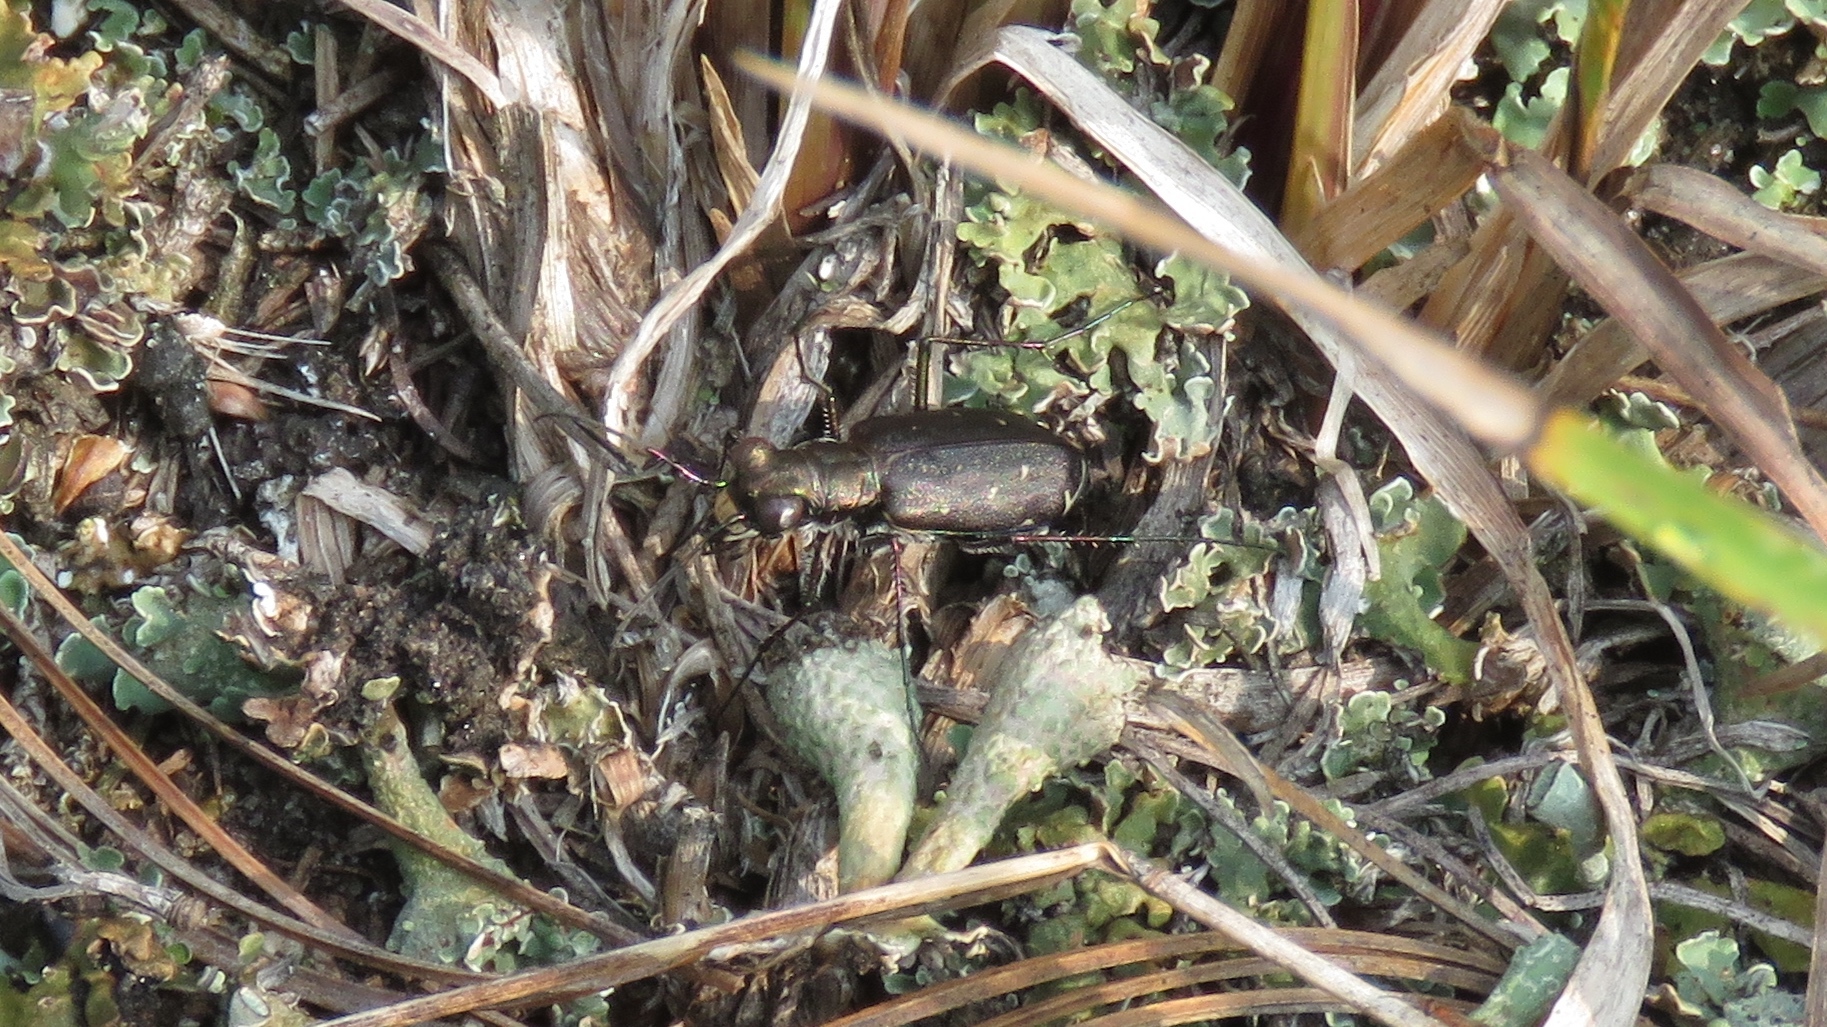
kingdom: Animalia
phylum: Arthropoda
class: Insecta
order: Coleoptera
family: Carabidae
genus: Cicindela
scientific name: Cicindela punctulata
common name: Punctured tiger beetle
